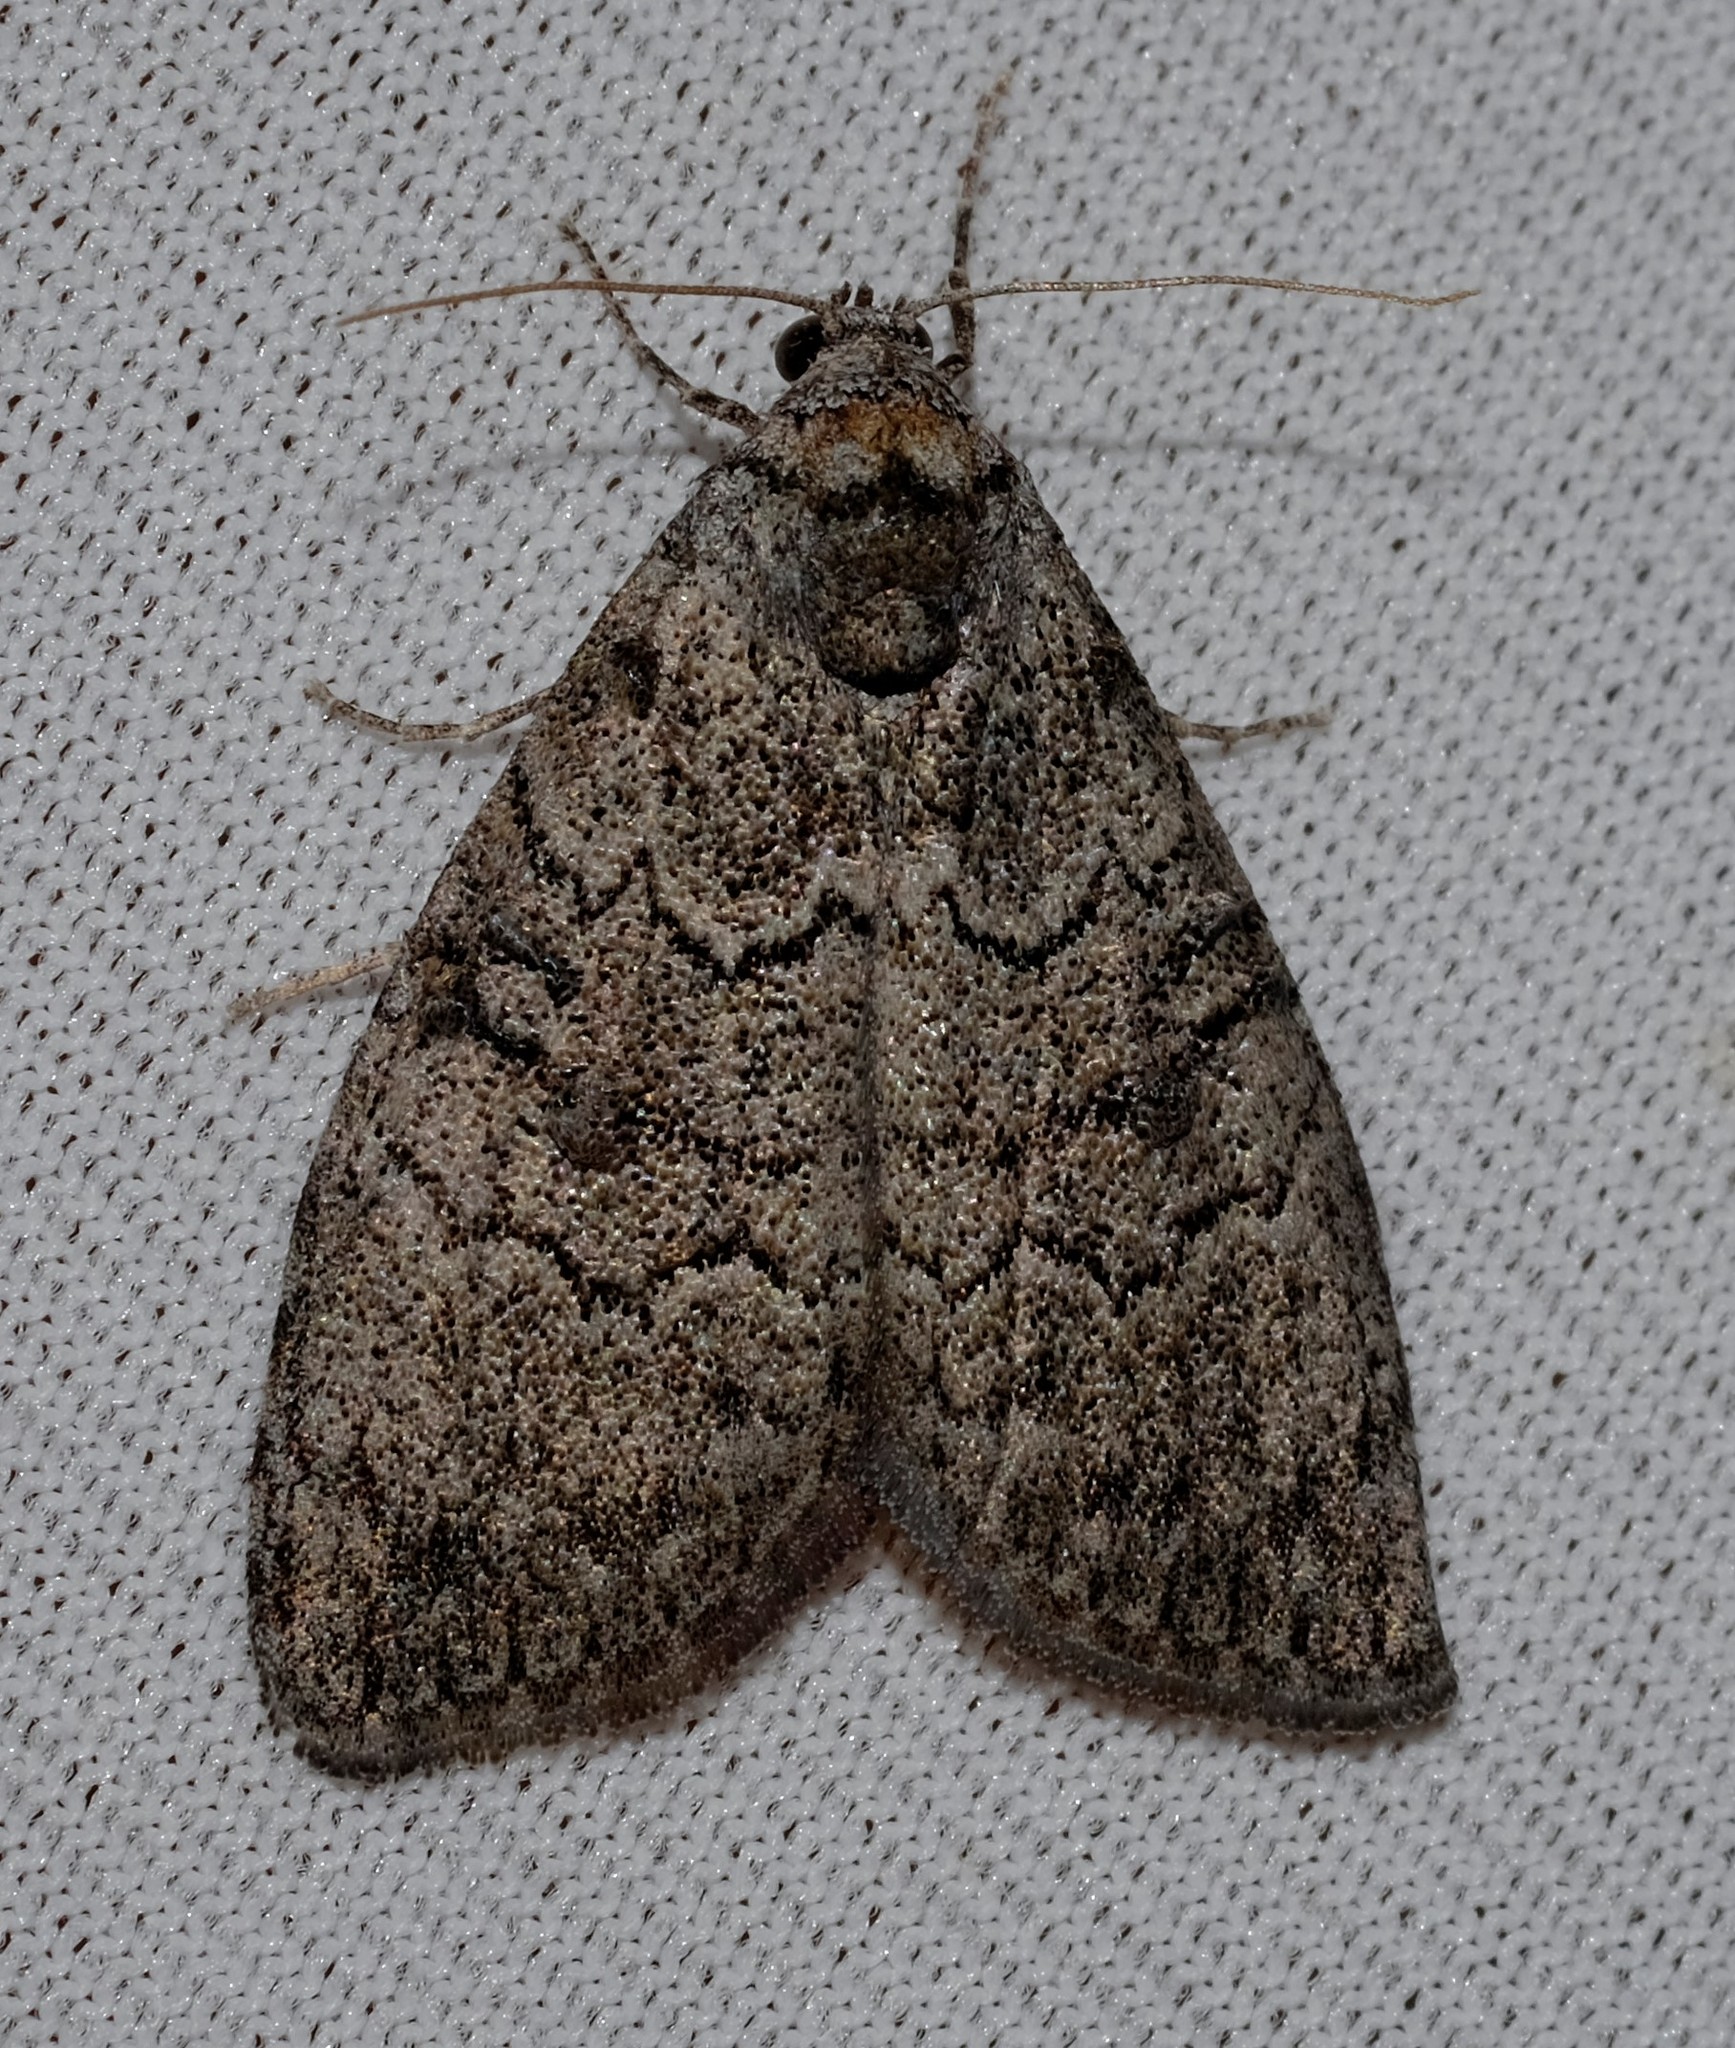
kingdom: Animalia
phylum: Arthropoda
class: Insecta
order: Lepidoptera
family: Nolidae
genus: Uraba
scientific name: Uraba lugens
